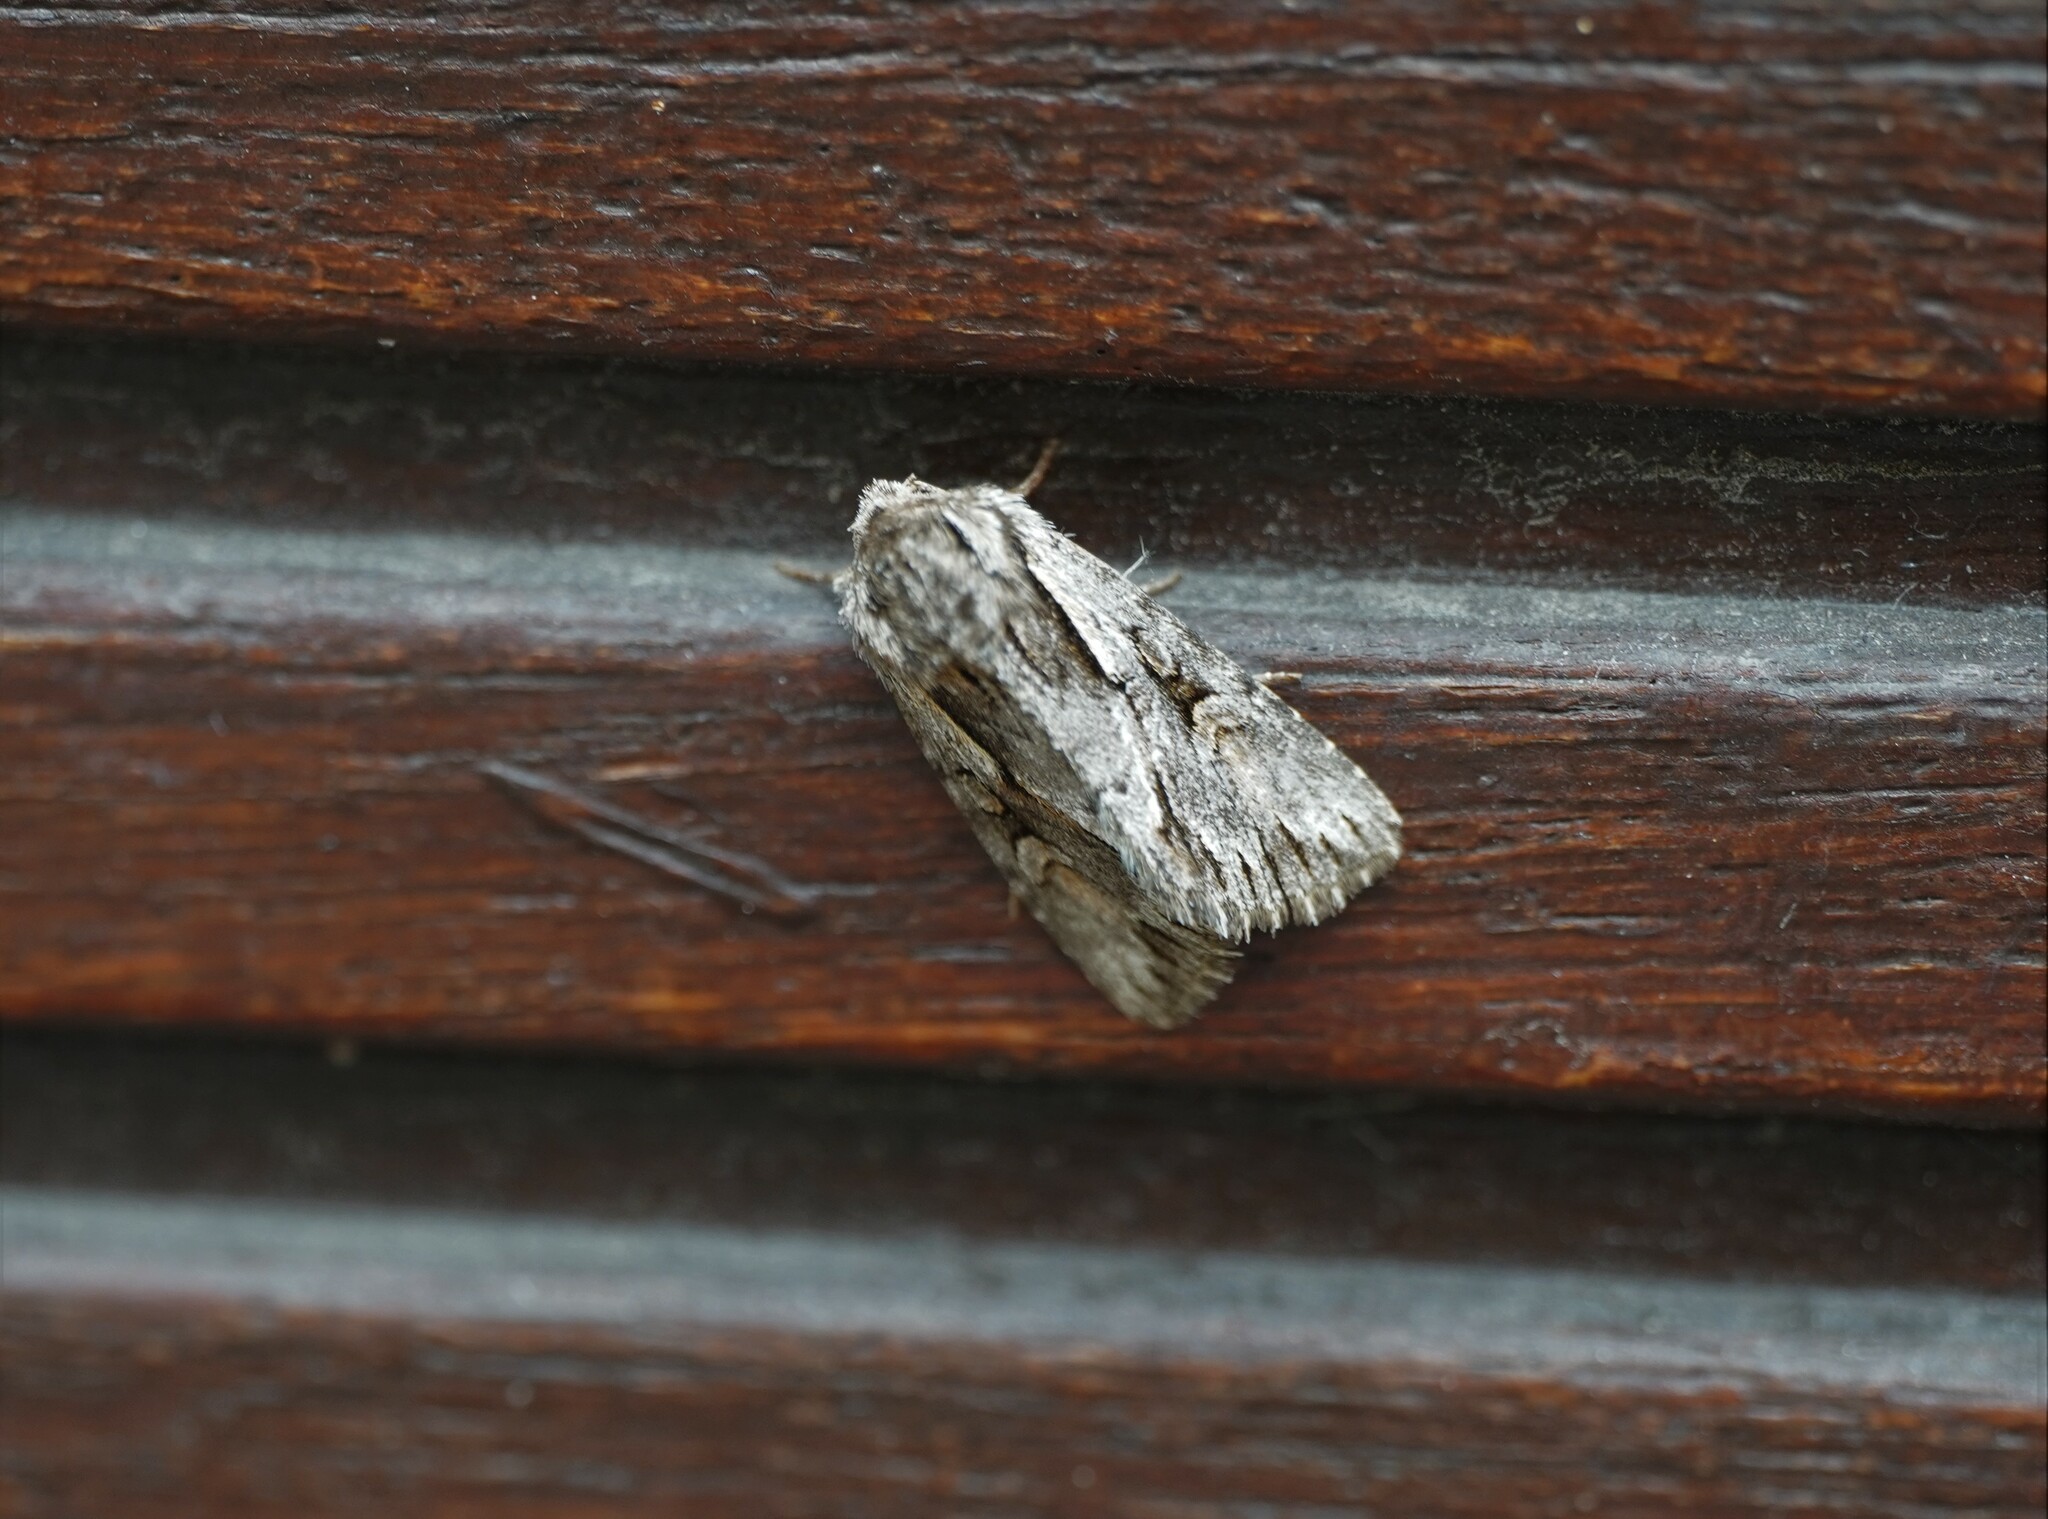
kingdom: Animalia
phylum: Arthropoda
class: Insecta
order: Lepidoptera
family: Noctuidae
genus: Chloantha
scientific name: Chloantha hyperici
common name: Pale-shouldered cloud
